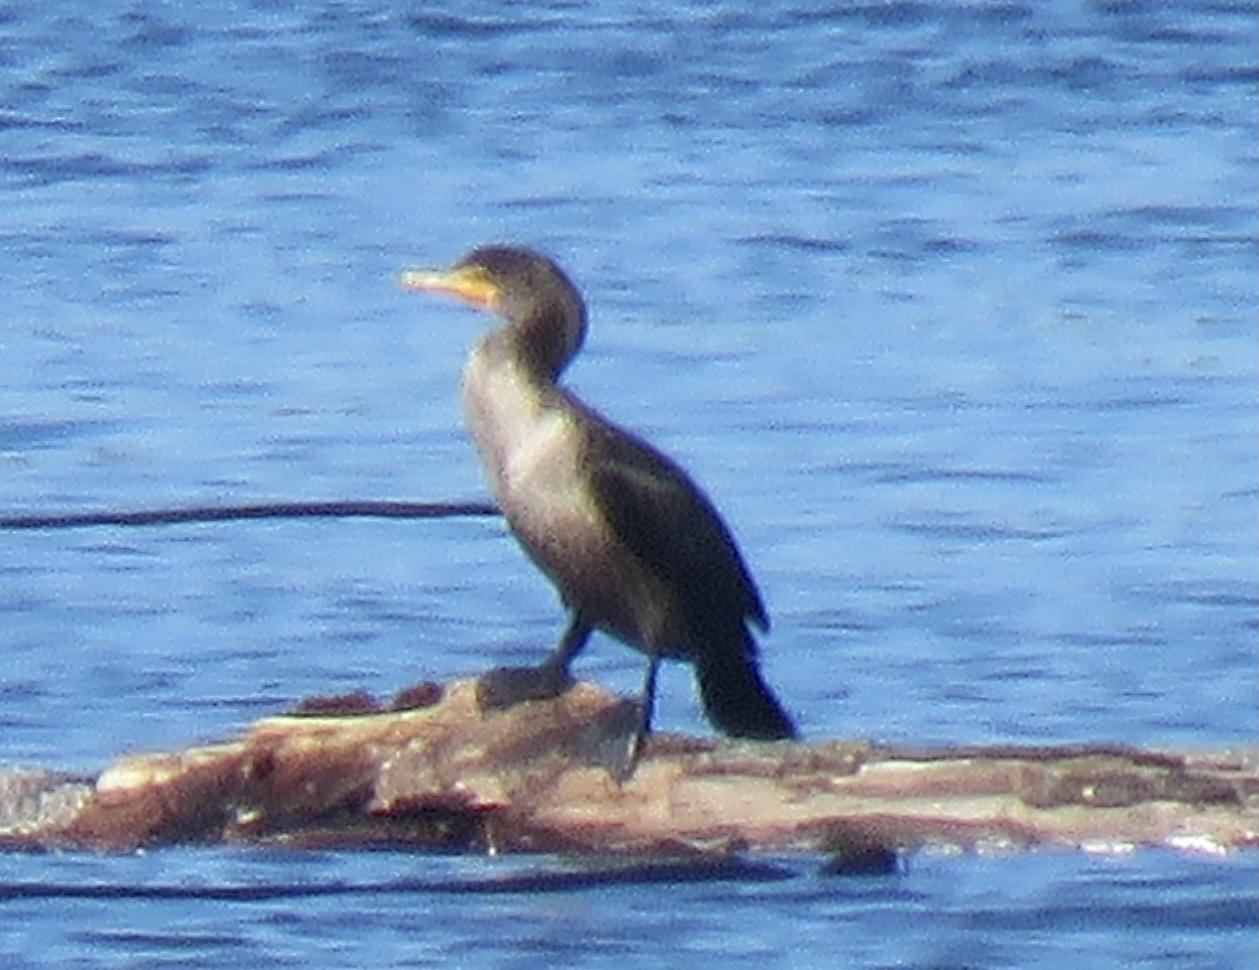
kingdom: Animalia
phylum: Chordata
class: Aves
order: Suliformes
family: Phalacrocoracidae
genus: Phalacrocorax
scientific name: Phalacrocorax auritus
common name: Double-crested cormorant
